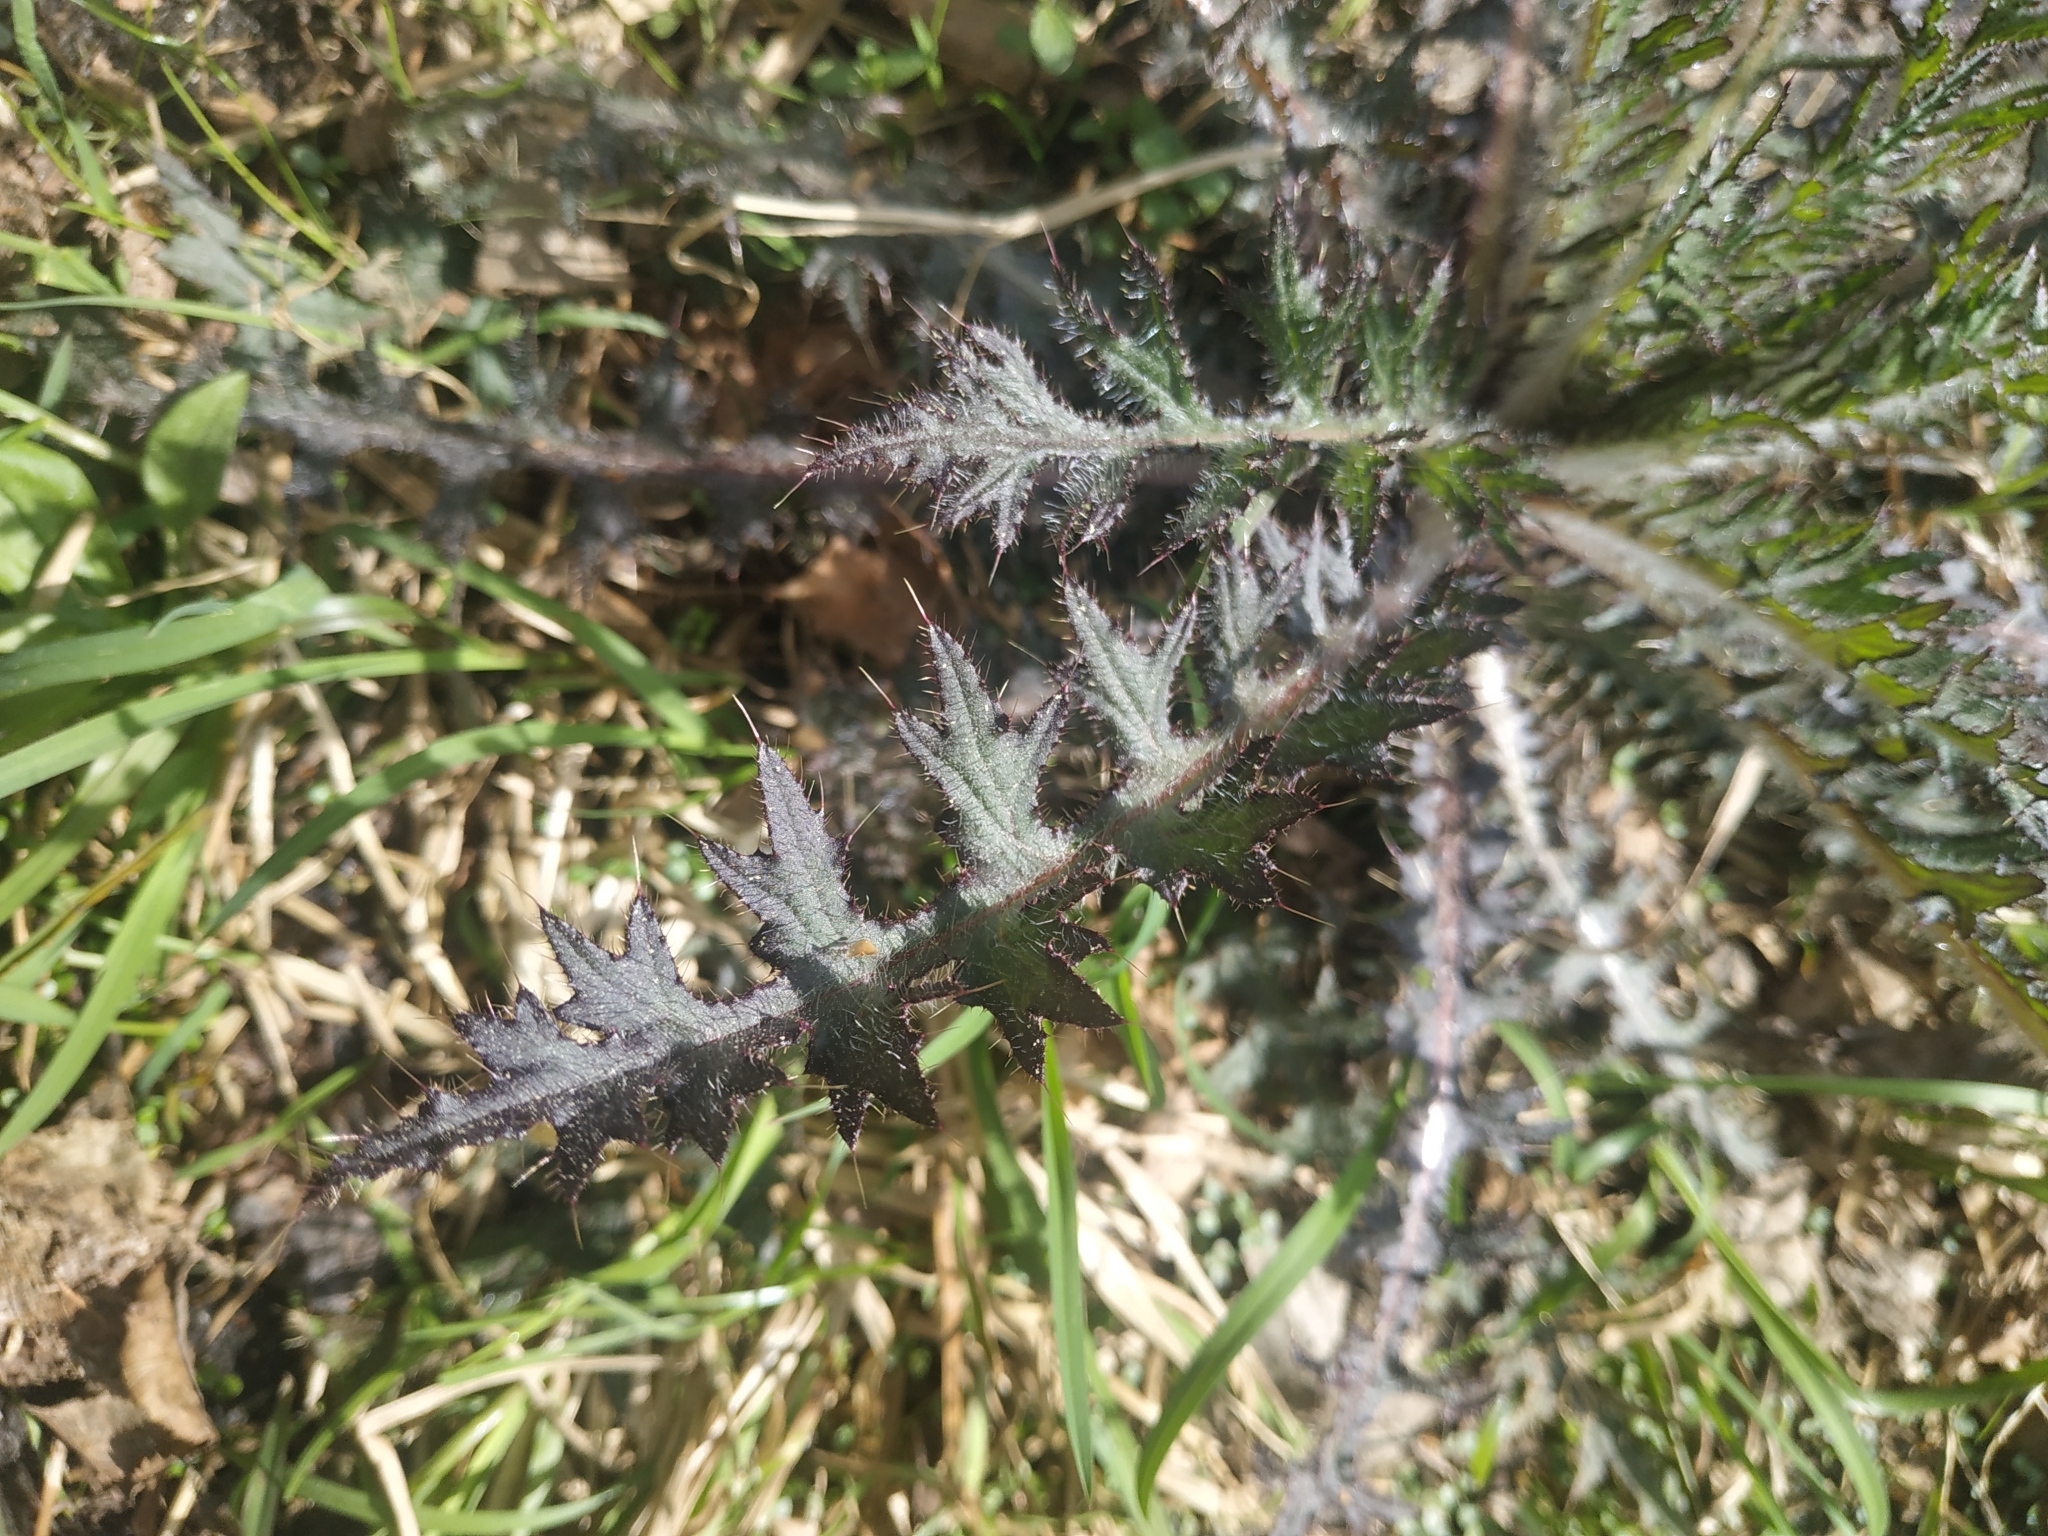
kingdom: Plantae
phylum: Tracheophyta
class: Magnoliopsida
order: Asterales
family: Asteraceae
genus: Cirsium
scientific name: Cirsium palustre
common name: Marsh thistle
